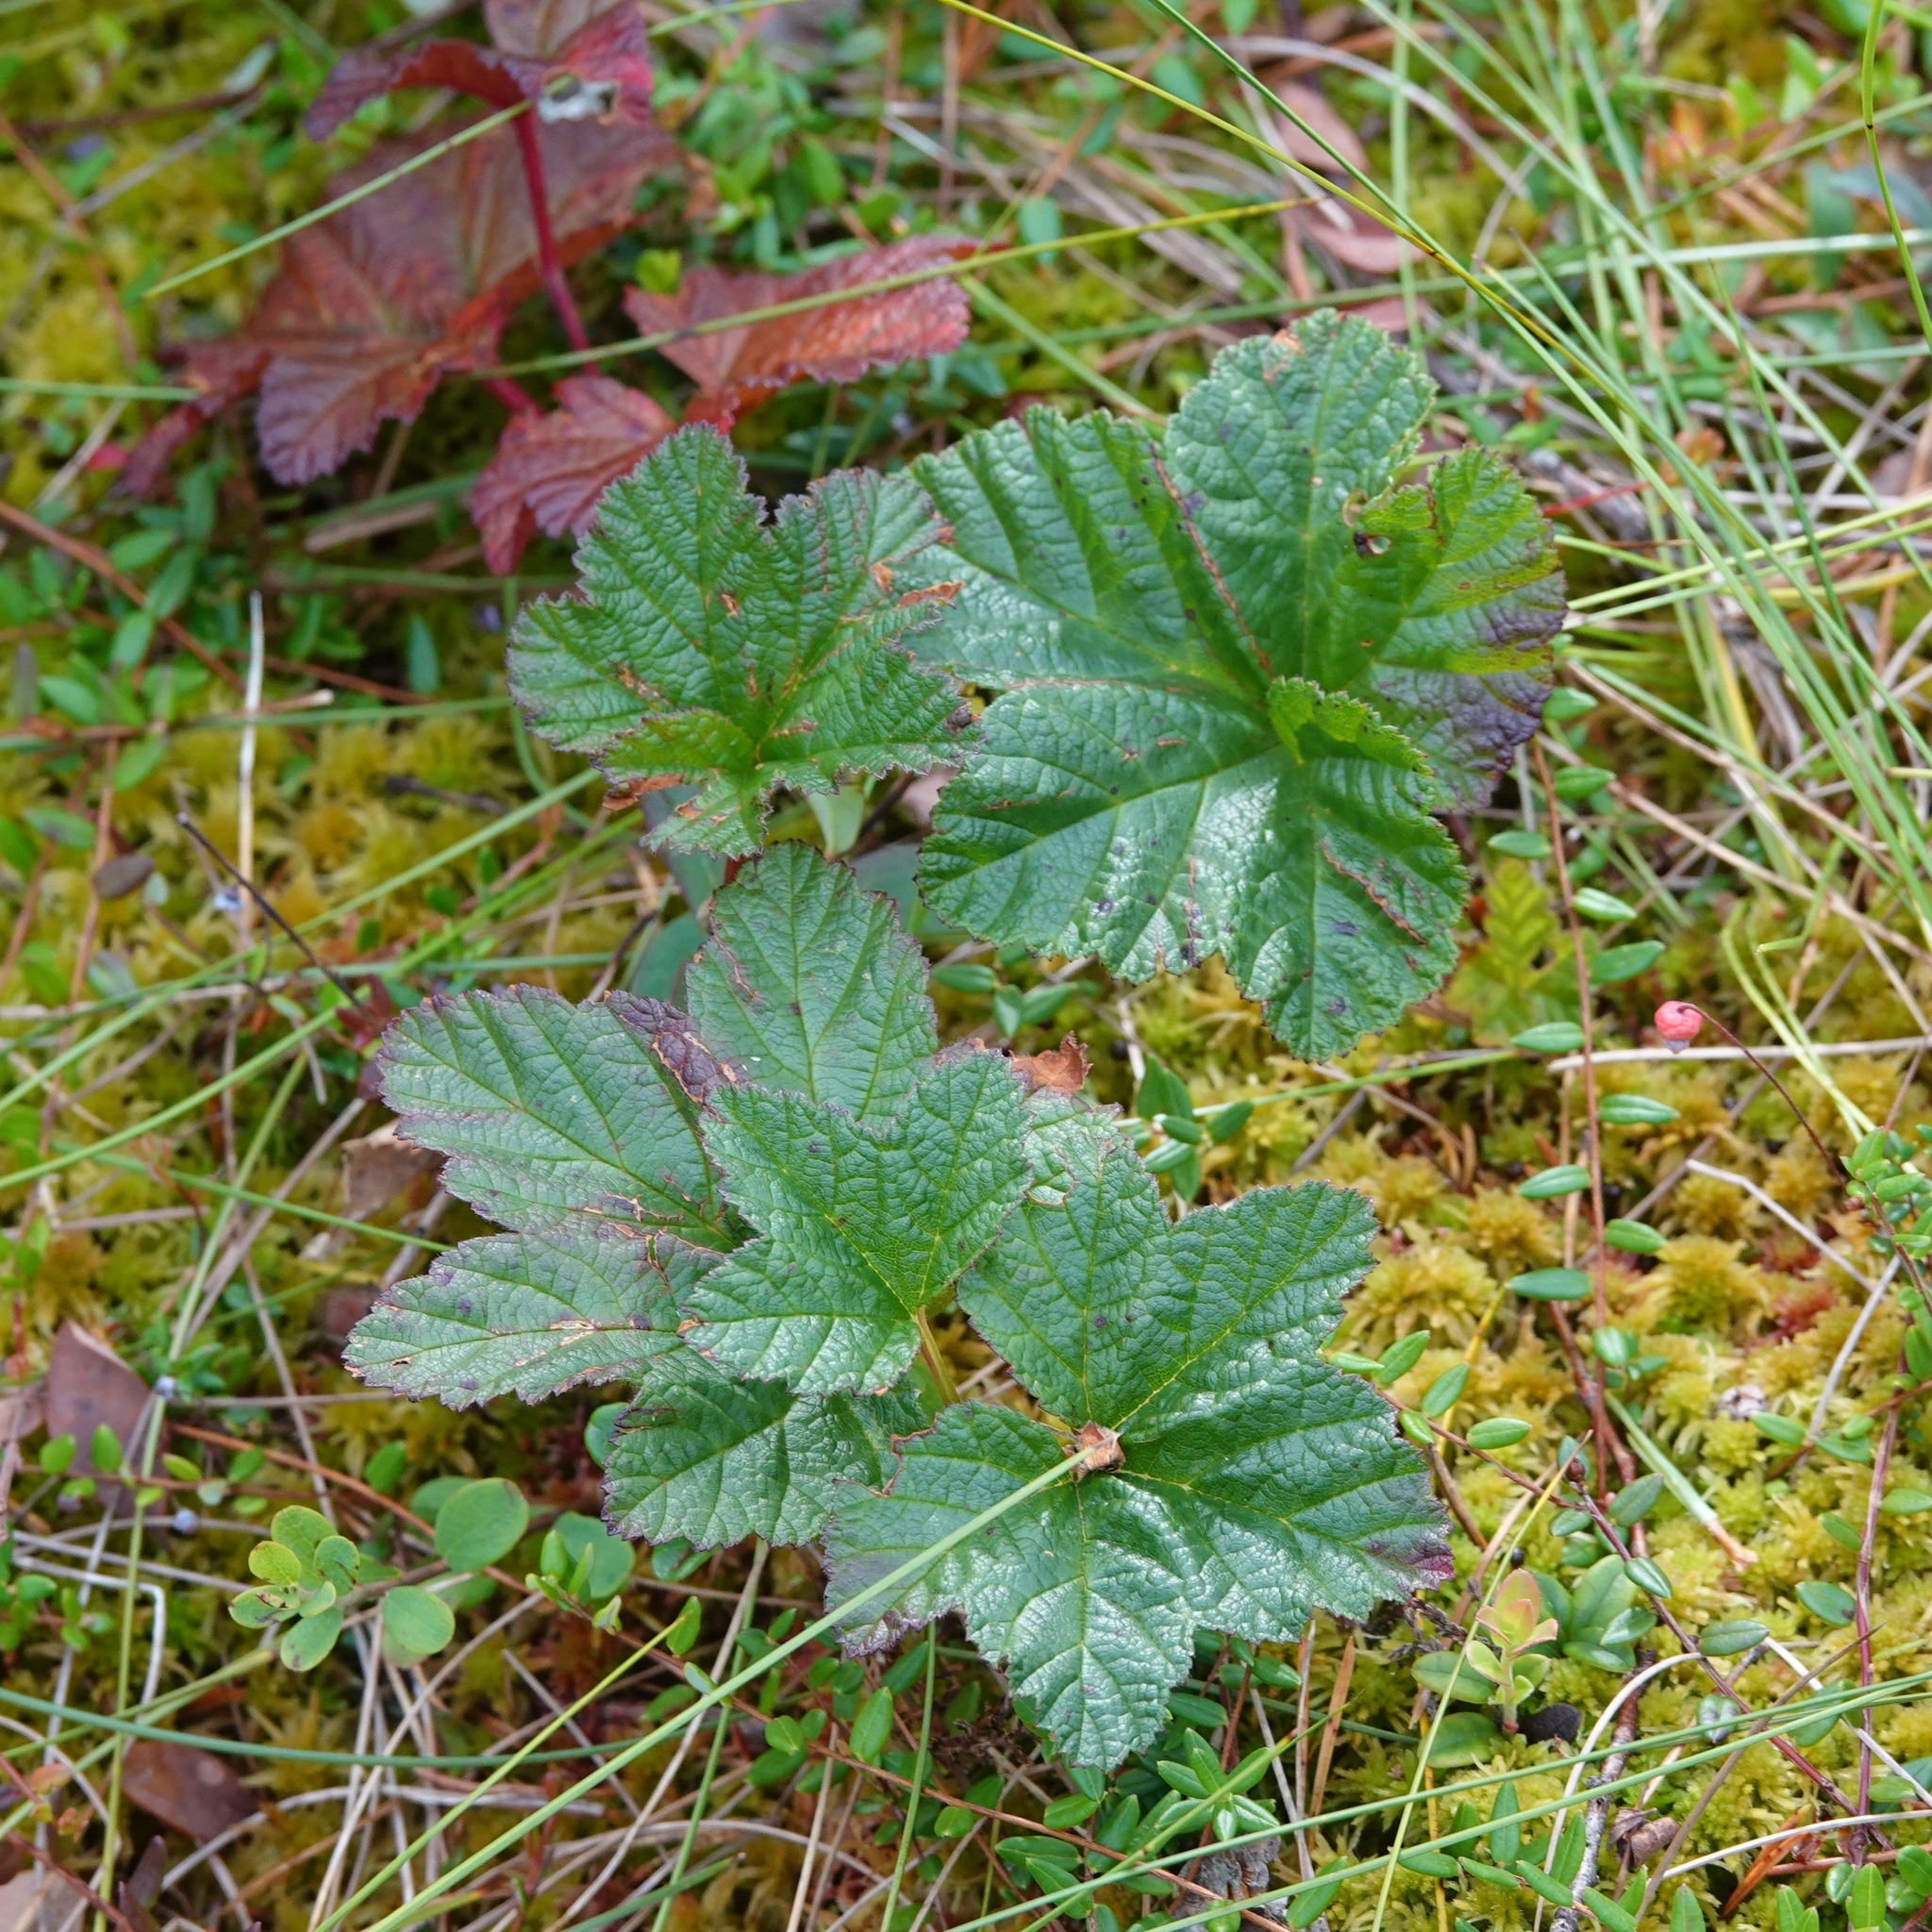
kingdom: Plantae
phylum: Tracheophyta
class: Magnoliopsida
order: Rosales
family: Rosaceae
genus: Rubus
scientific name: Rubus chamaemorus
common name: Cloudberry
